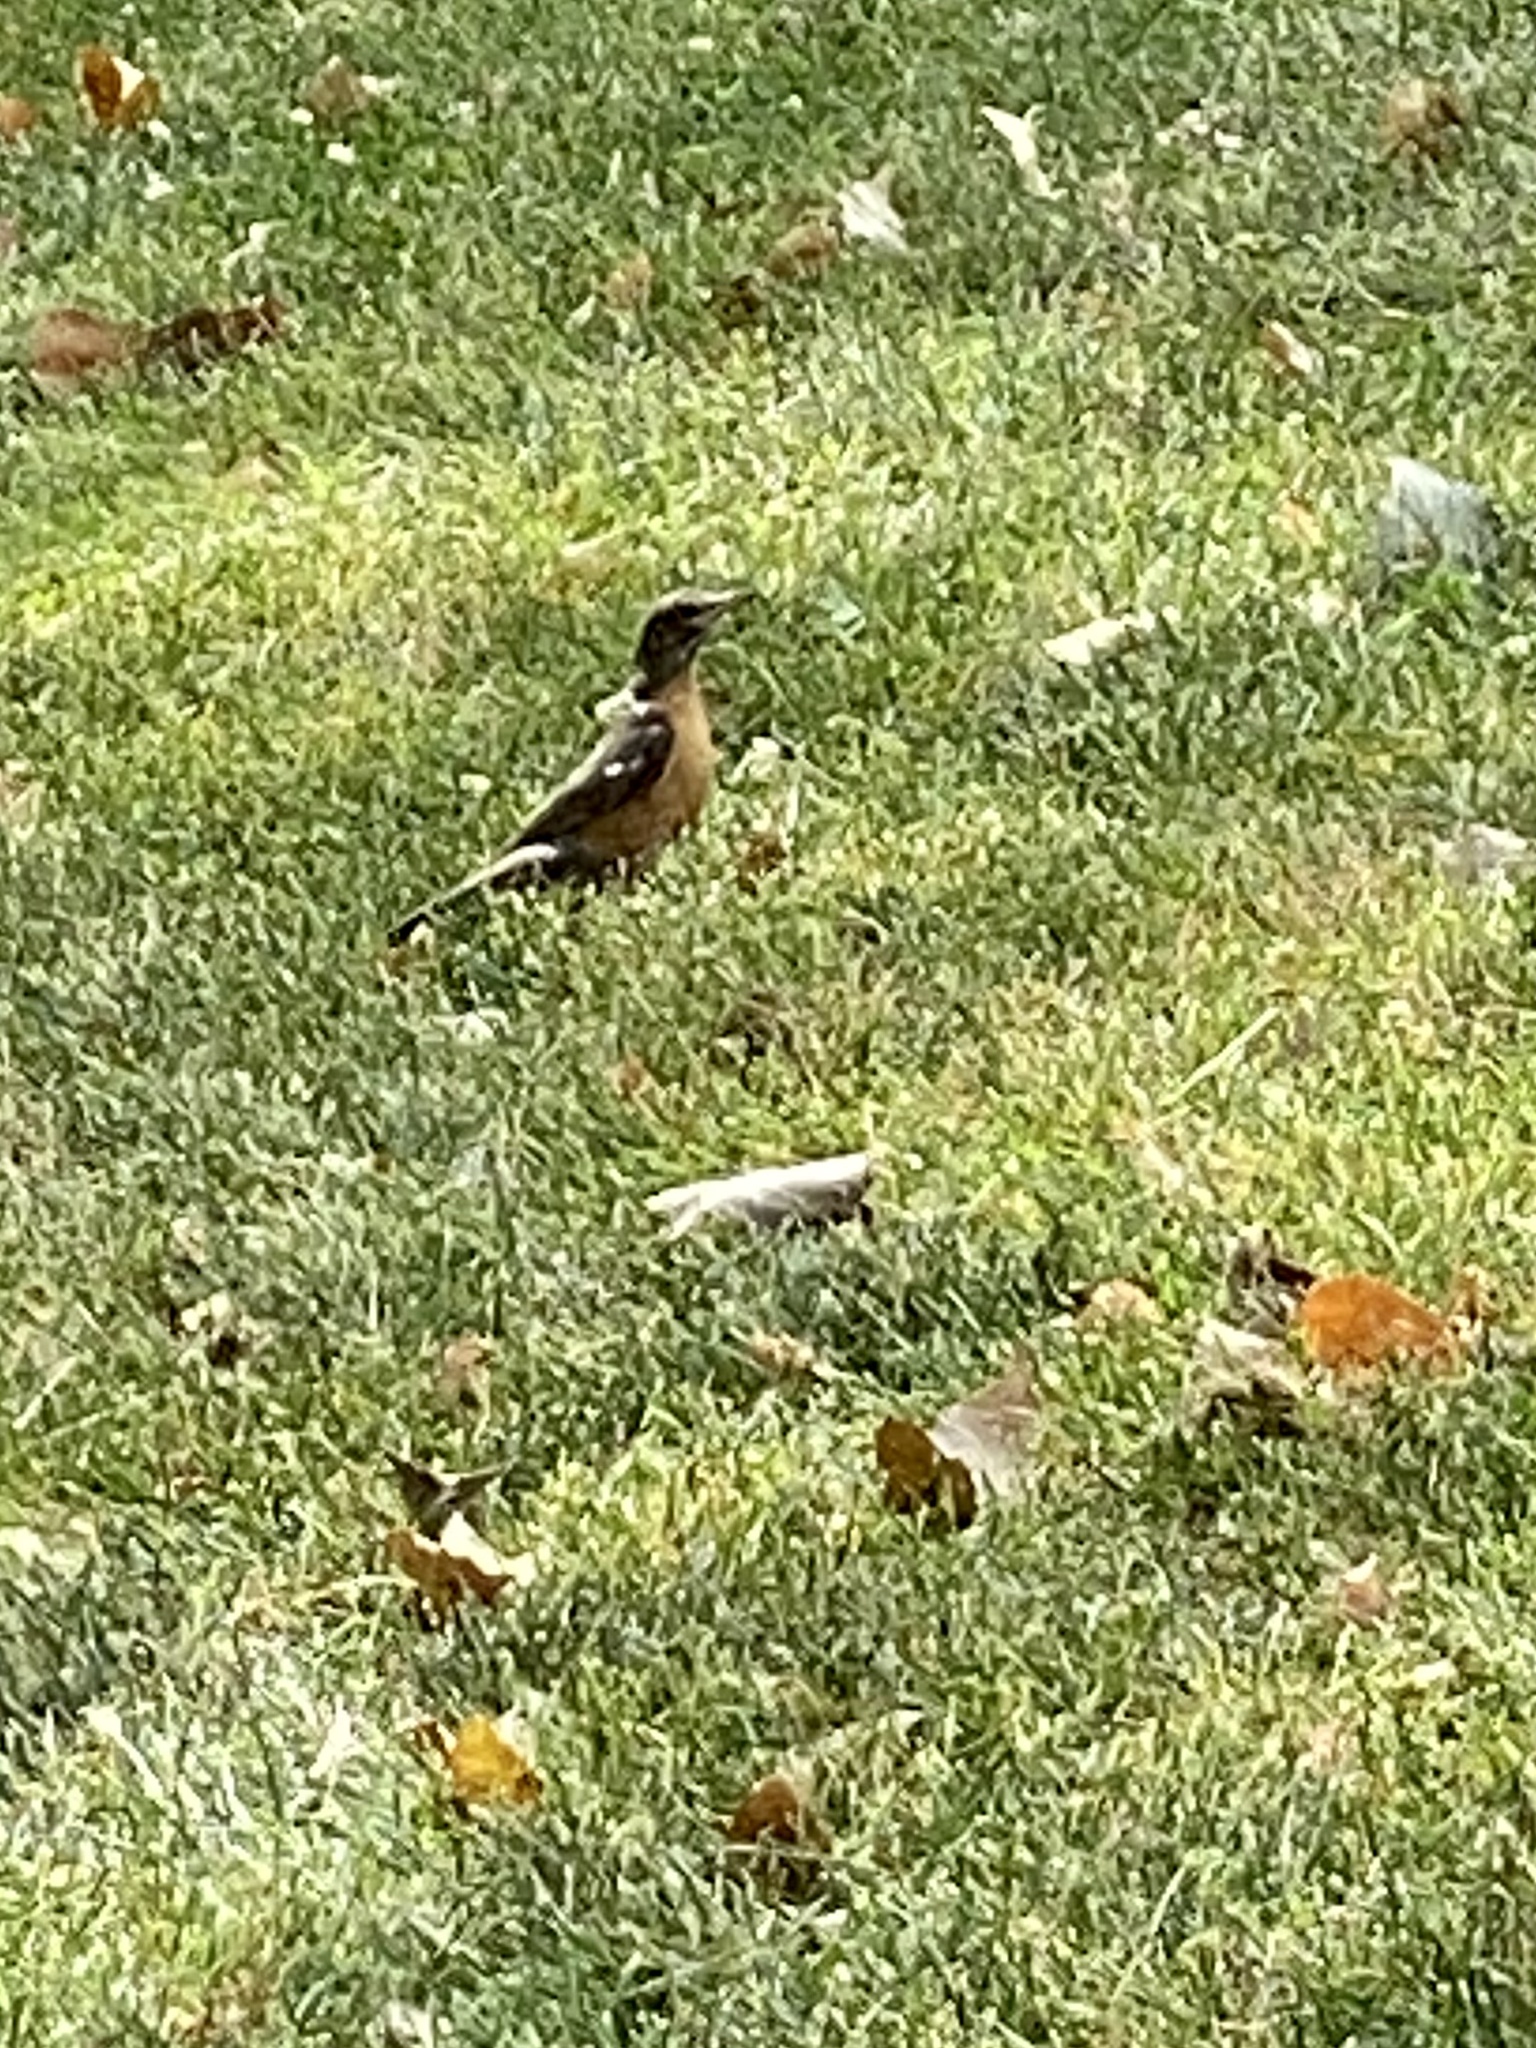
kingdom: Animalia
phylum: Chordata
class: Aves
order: Passeriformes
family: Turdidae
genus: Turdus
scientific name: Turdus migratorius
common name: American robin
